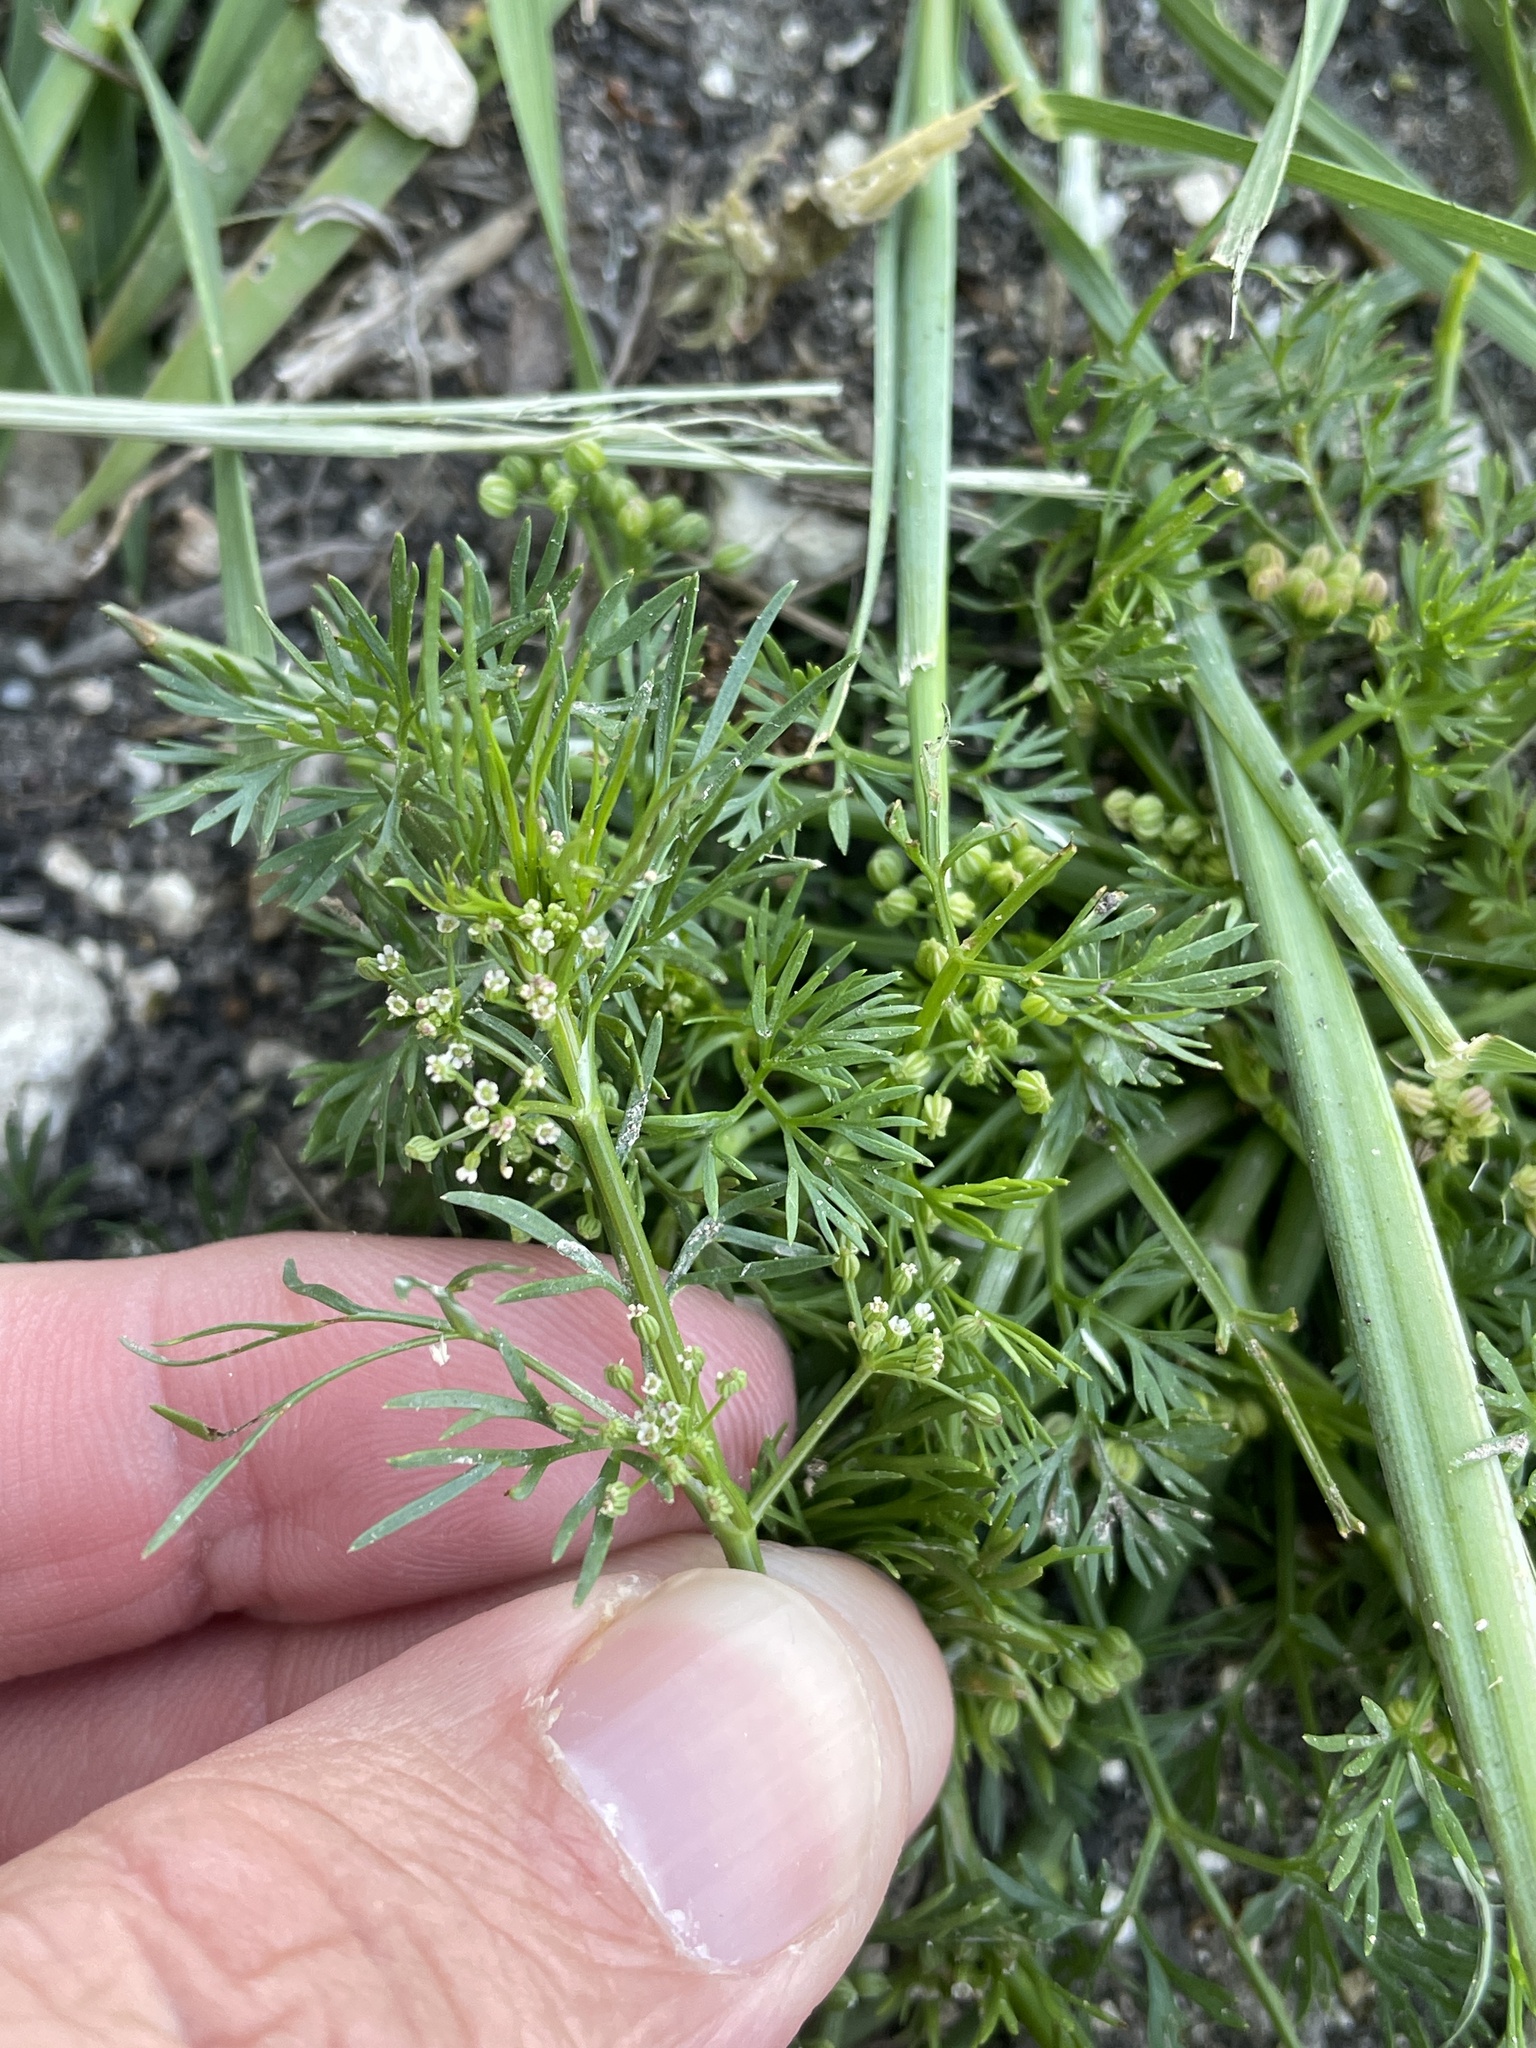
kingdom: Plantae
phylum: Tracheophyta
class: Magnoliopsida
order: Apiales
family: Apiaceae
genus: Cyclospermum
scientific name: Cyclospermum leptophyllum
